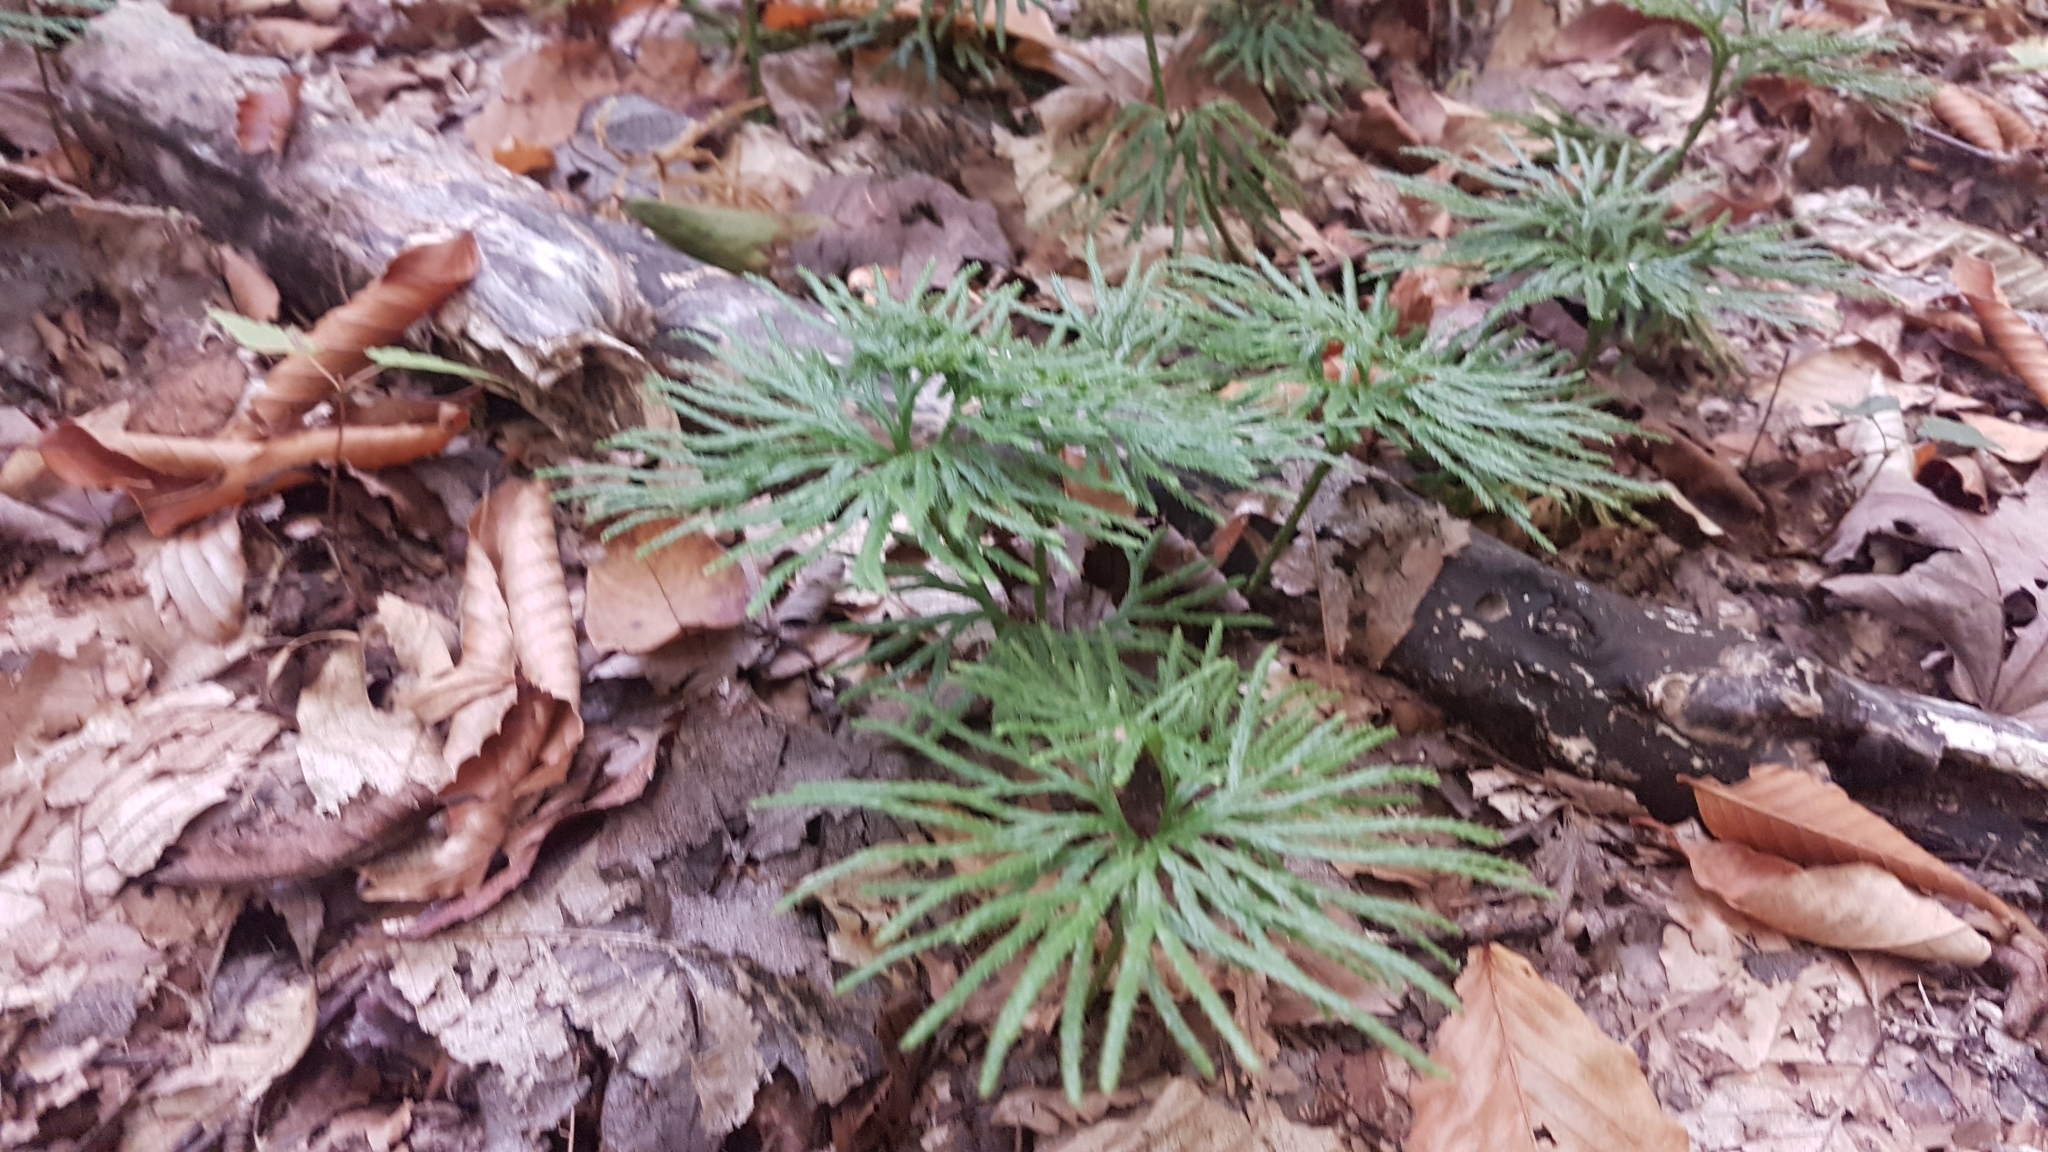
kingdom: Plantae
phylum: Tracheophyta
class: Lycopodiopsida
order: Lycopodiales
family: Lycopodiaceae
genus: Diphasiastrum
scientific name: Diphasiastrum digitatum
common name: Southern running-pine
